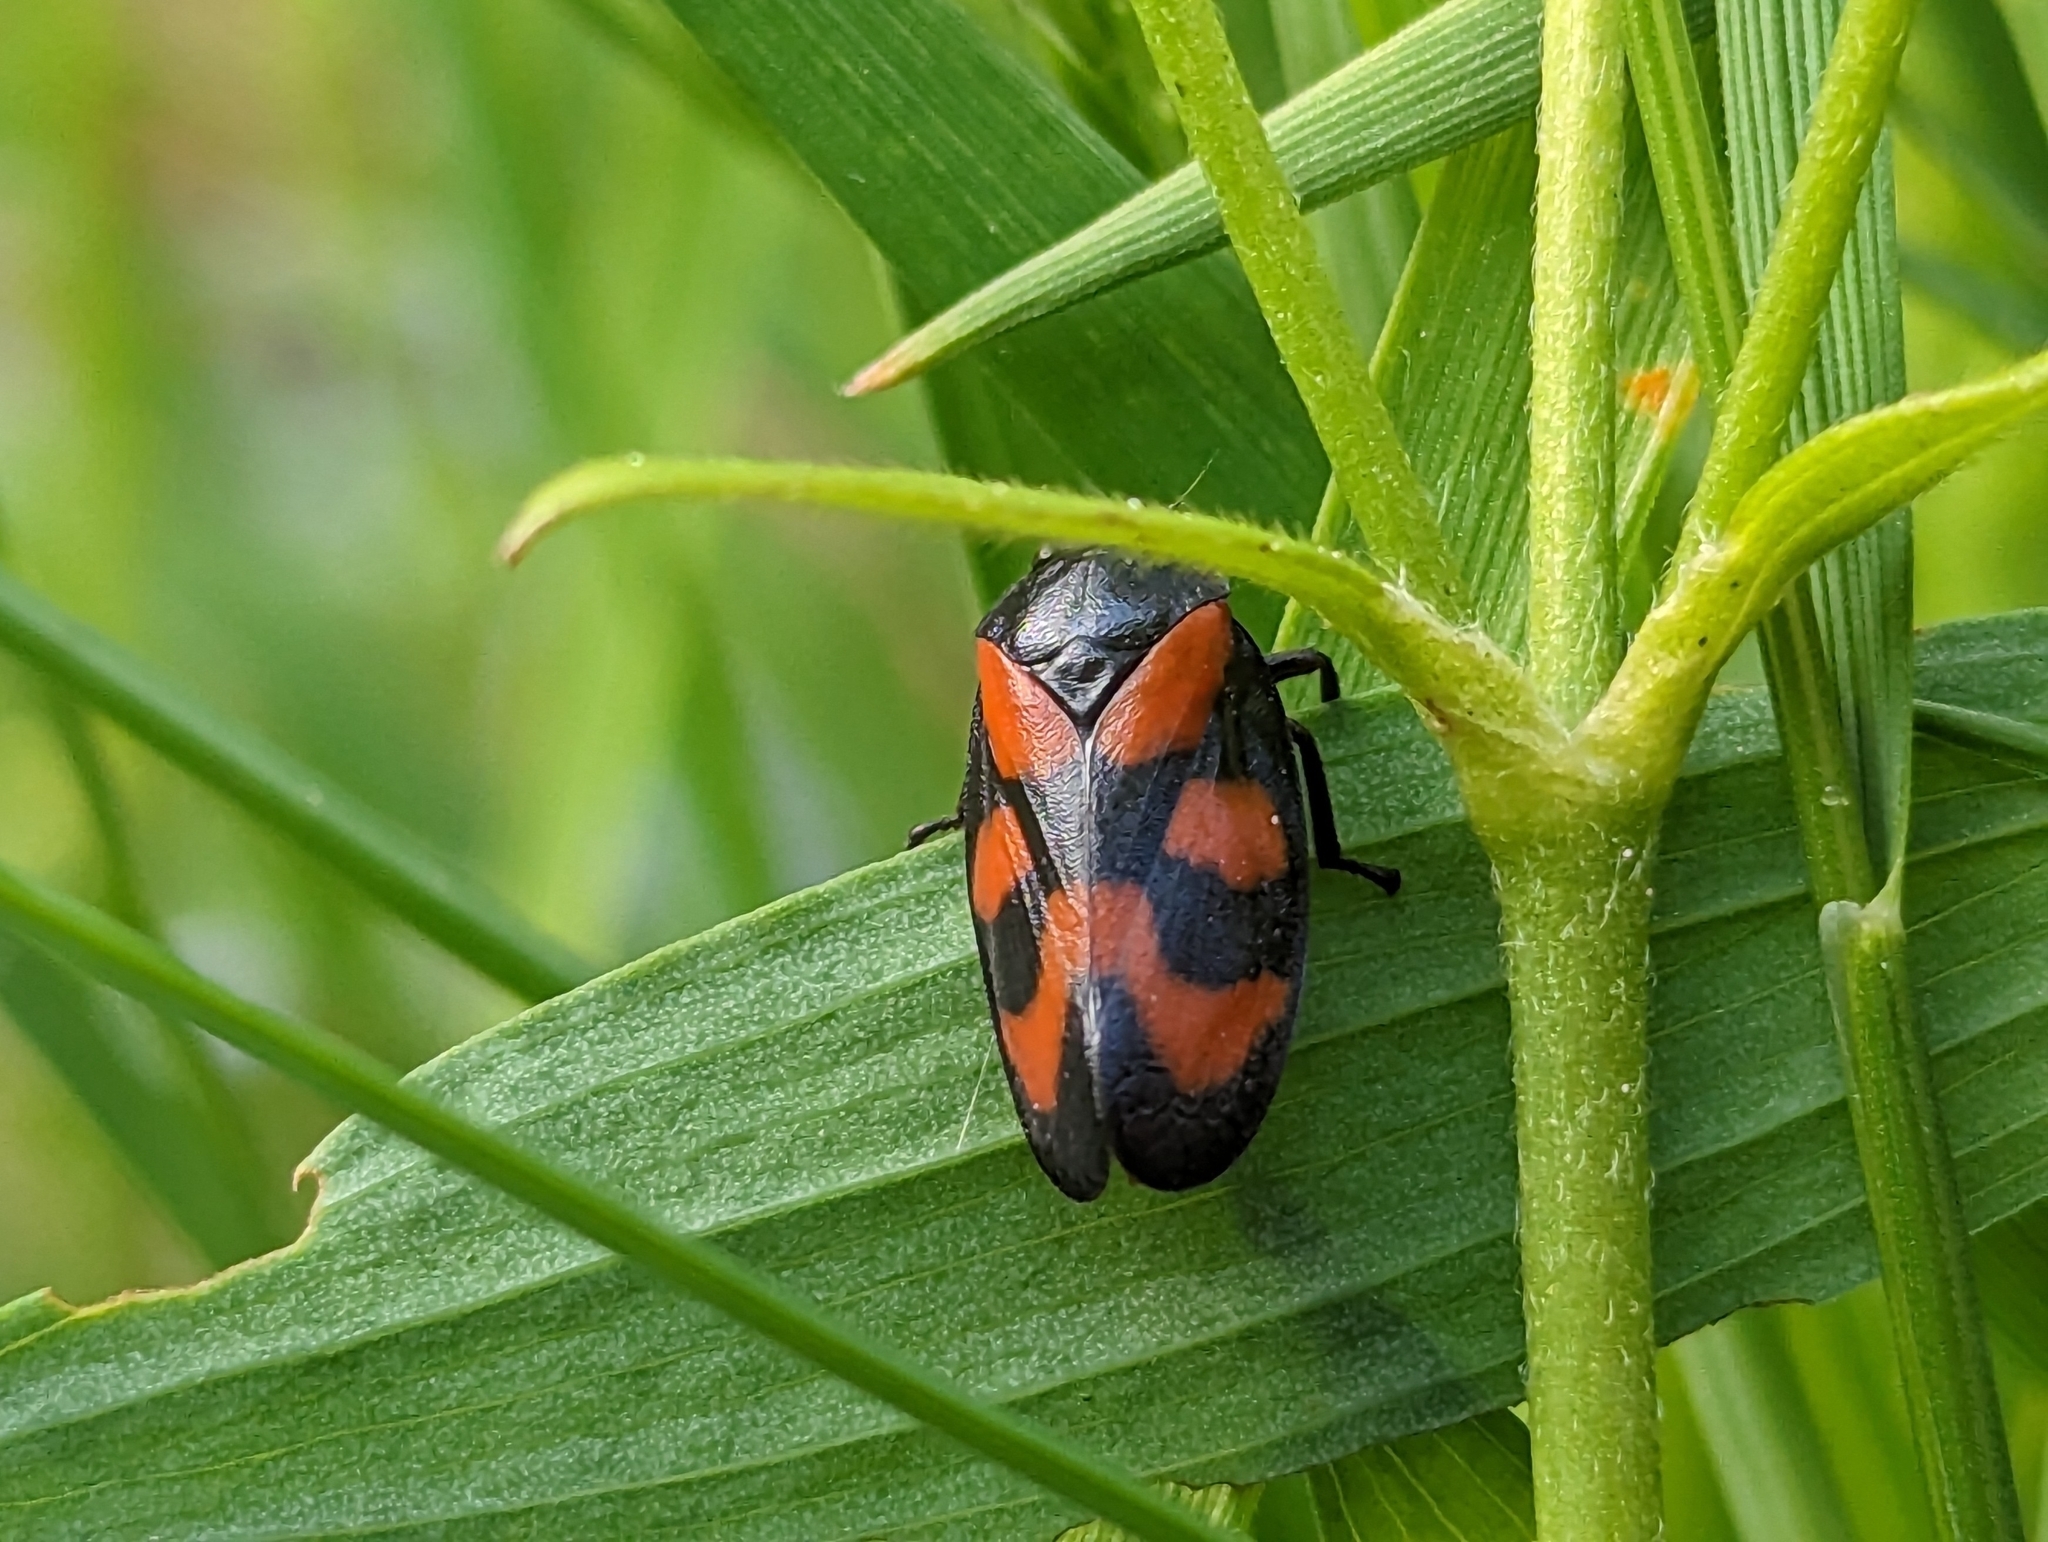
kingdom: Animalia
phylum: Arthropoda
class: Insecta
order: Hemiptera
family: Cercopidae
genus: Cercopis
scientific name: Cercopis vulnerata
